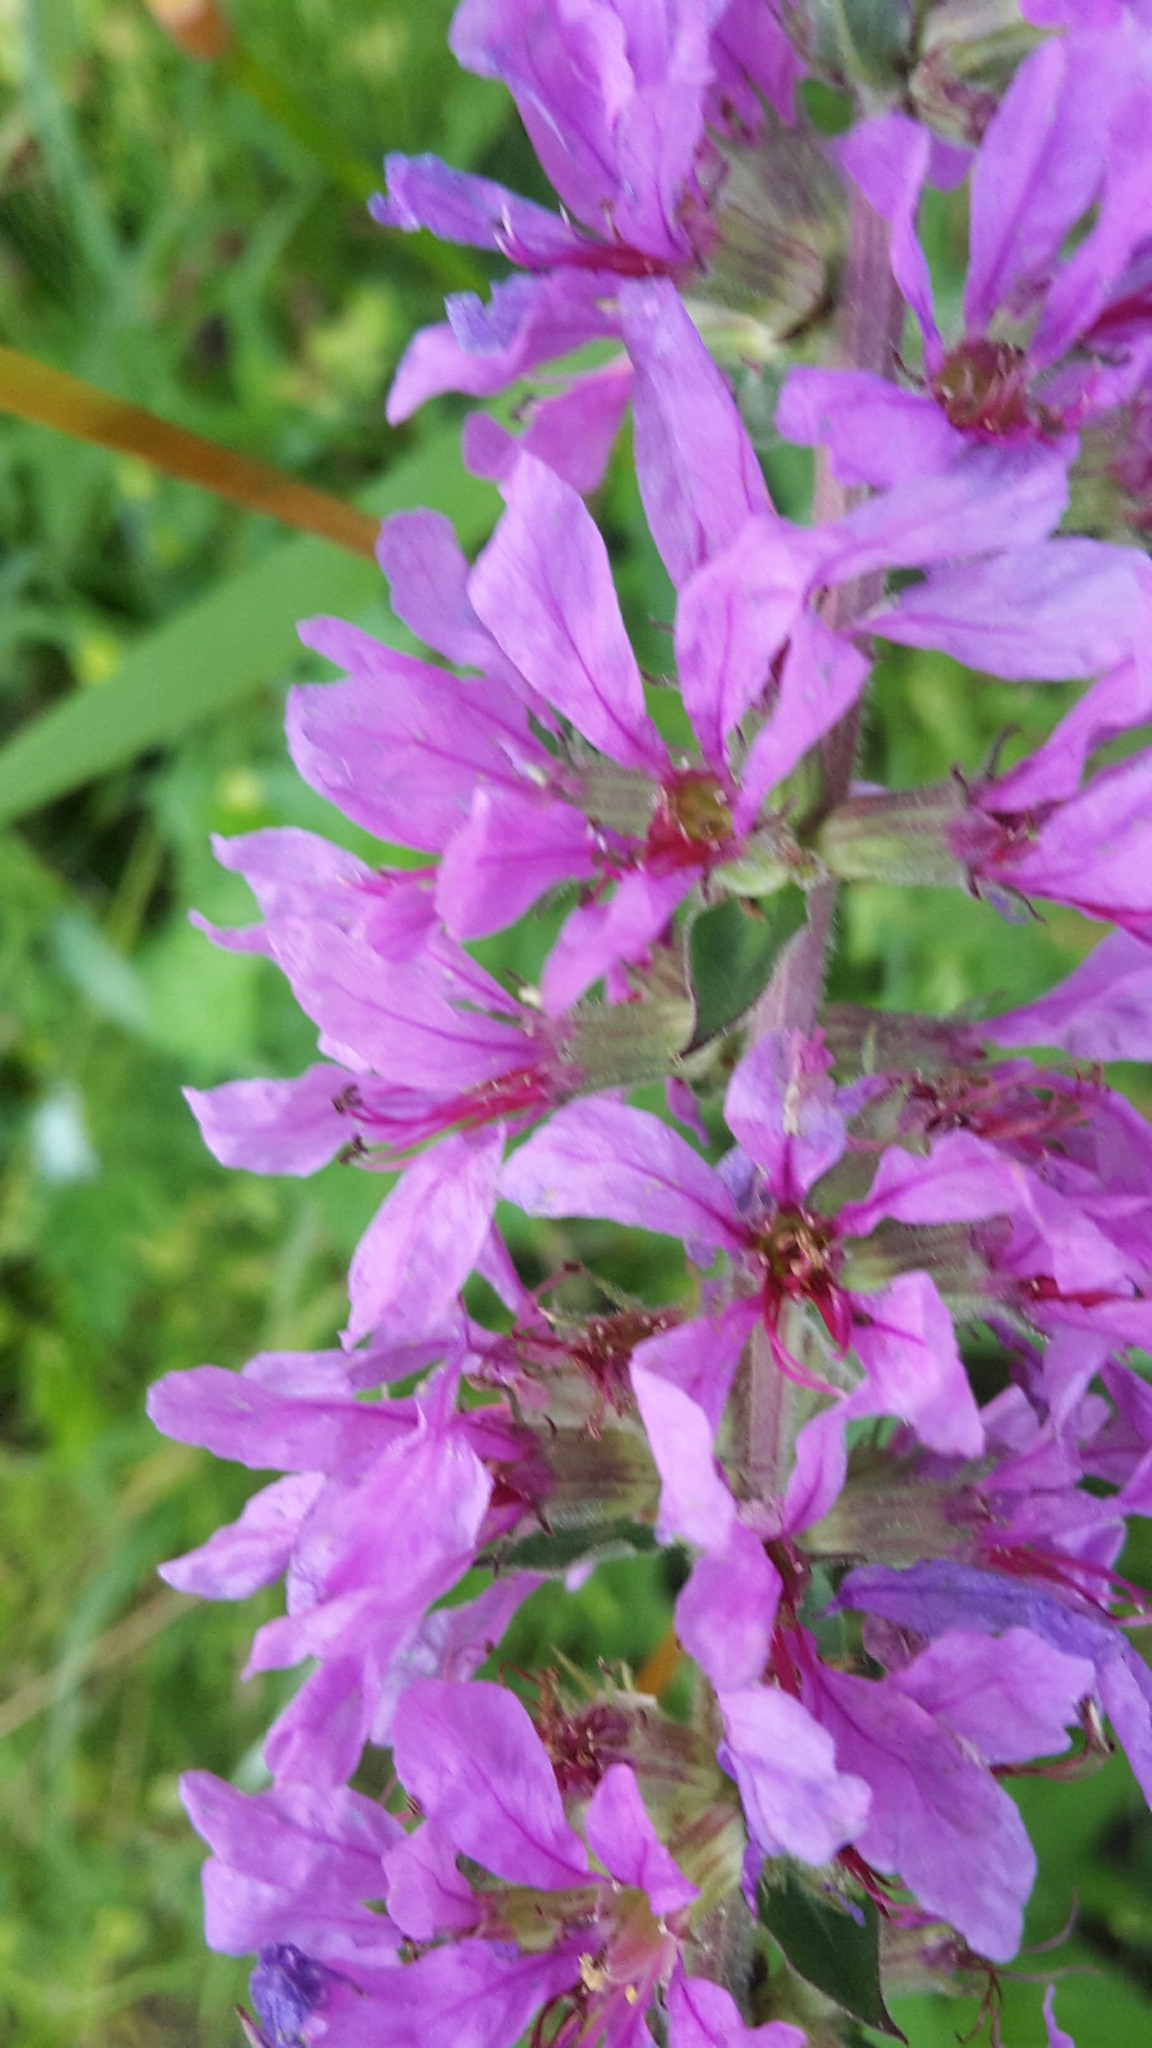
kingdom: Plantae
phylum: Tracheophyta
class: Magnoliopsida
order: Myrtales
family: Lythraceae
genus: Lythrum
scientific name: Lythrum salicaria
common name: Purple loosestrife
